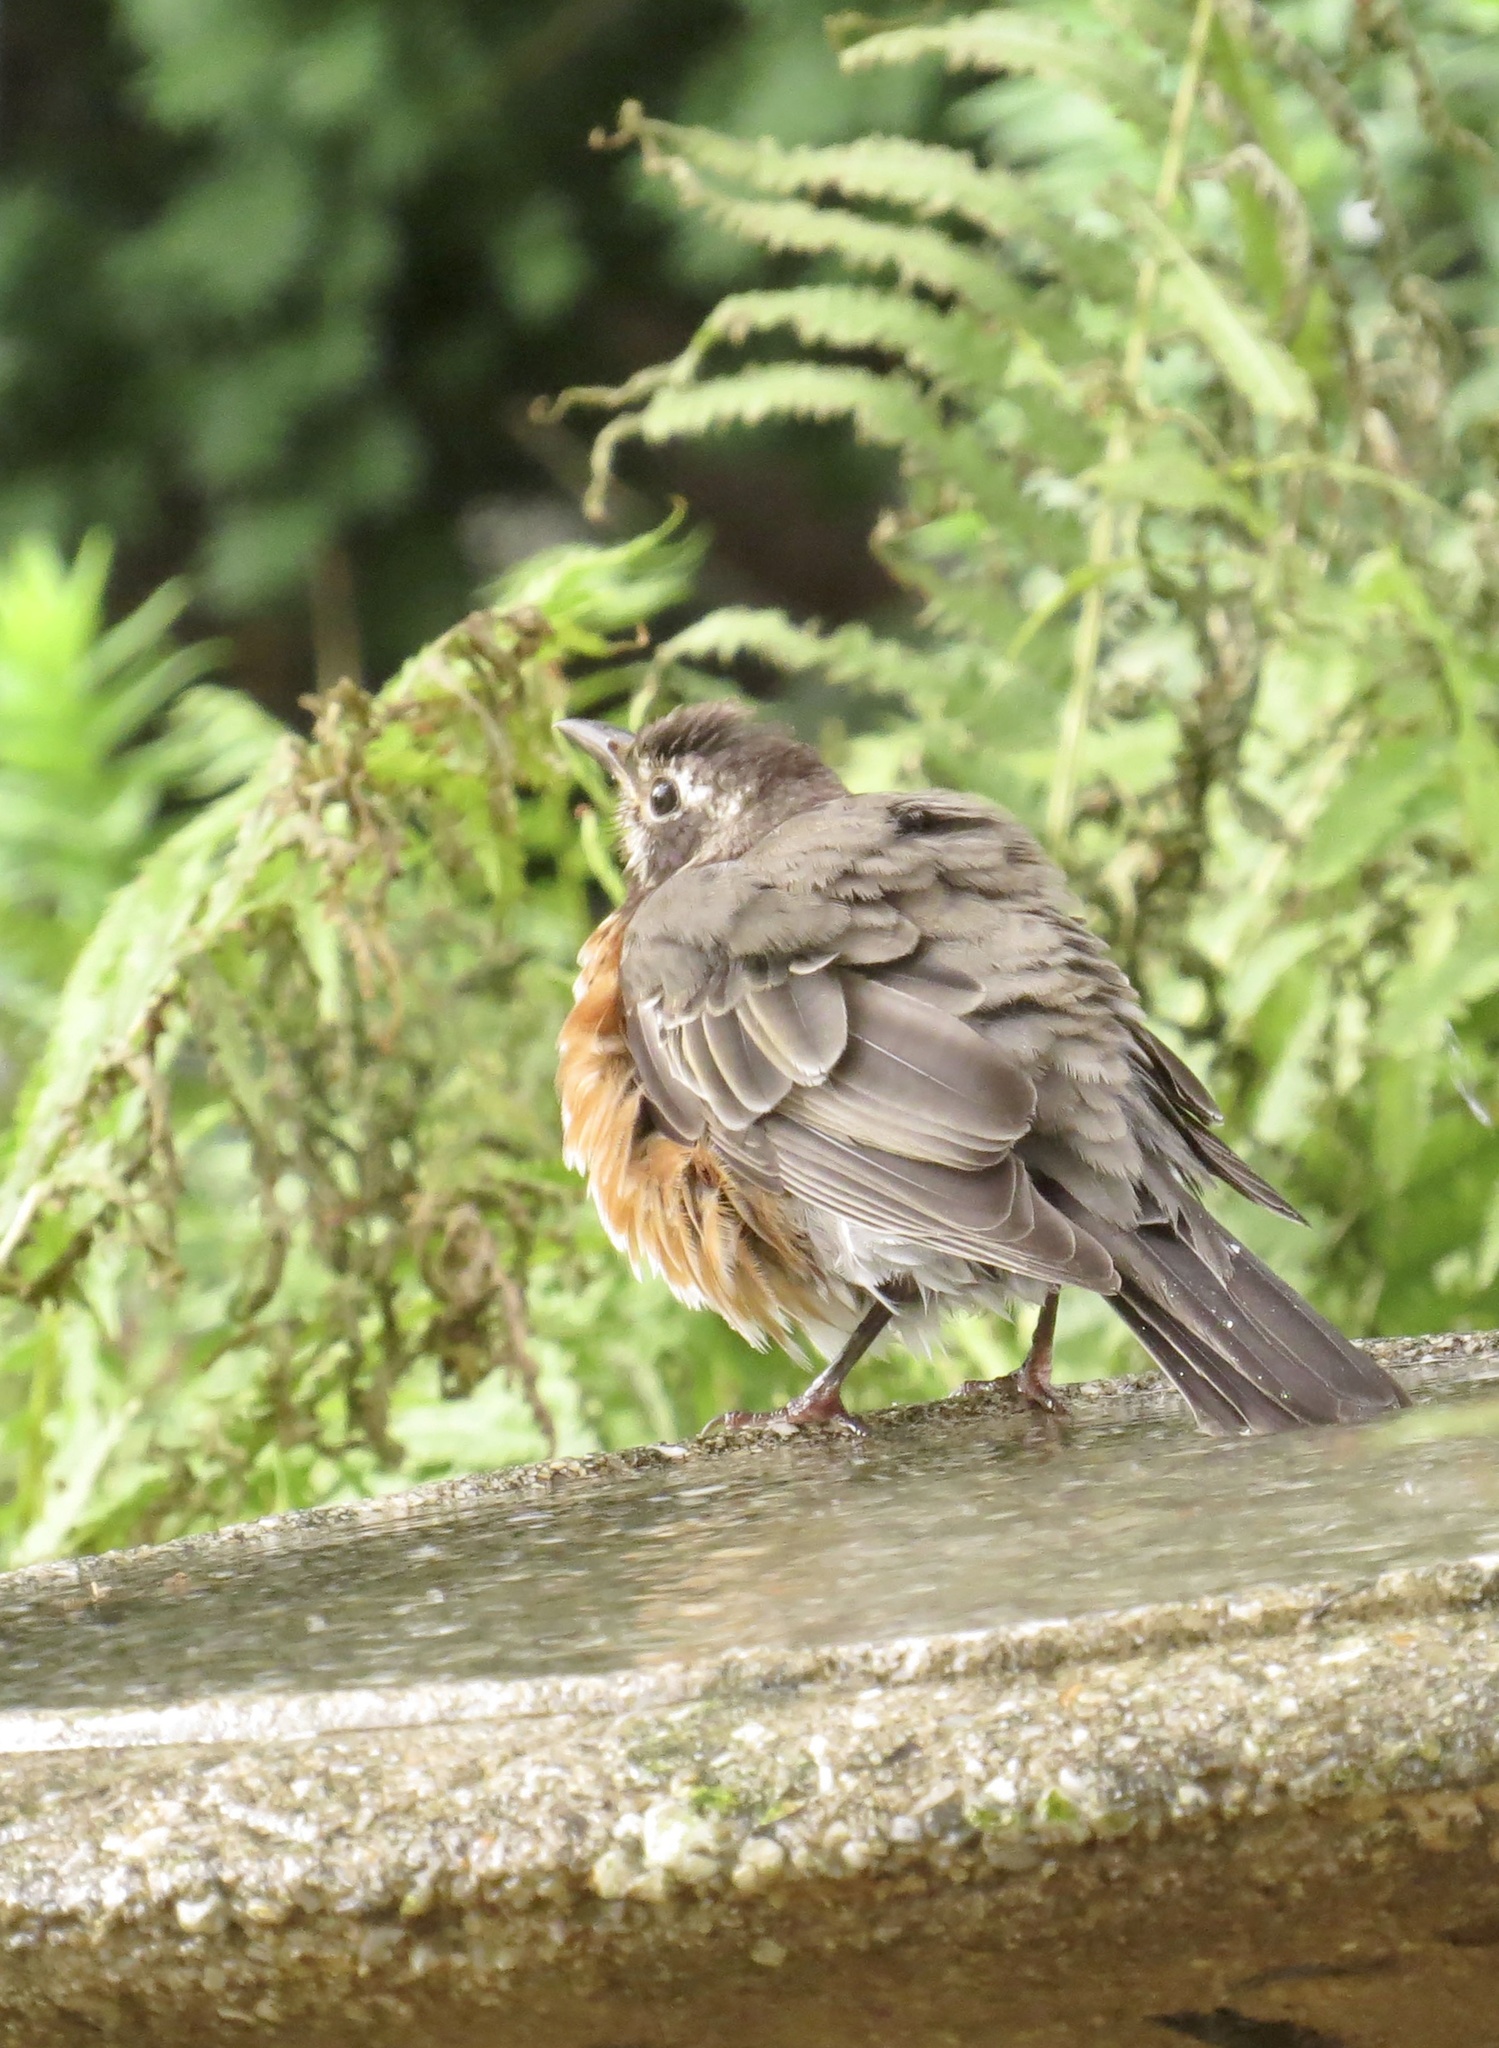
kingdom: Animalia
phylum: Chordata
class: Aves
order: Passeriformes
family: Turdidae
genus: Turdus
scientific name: Turdus migratorius
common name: American robin
